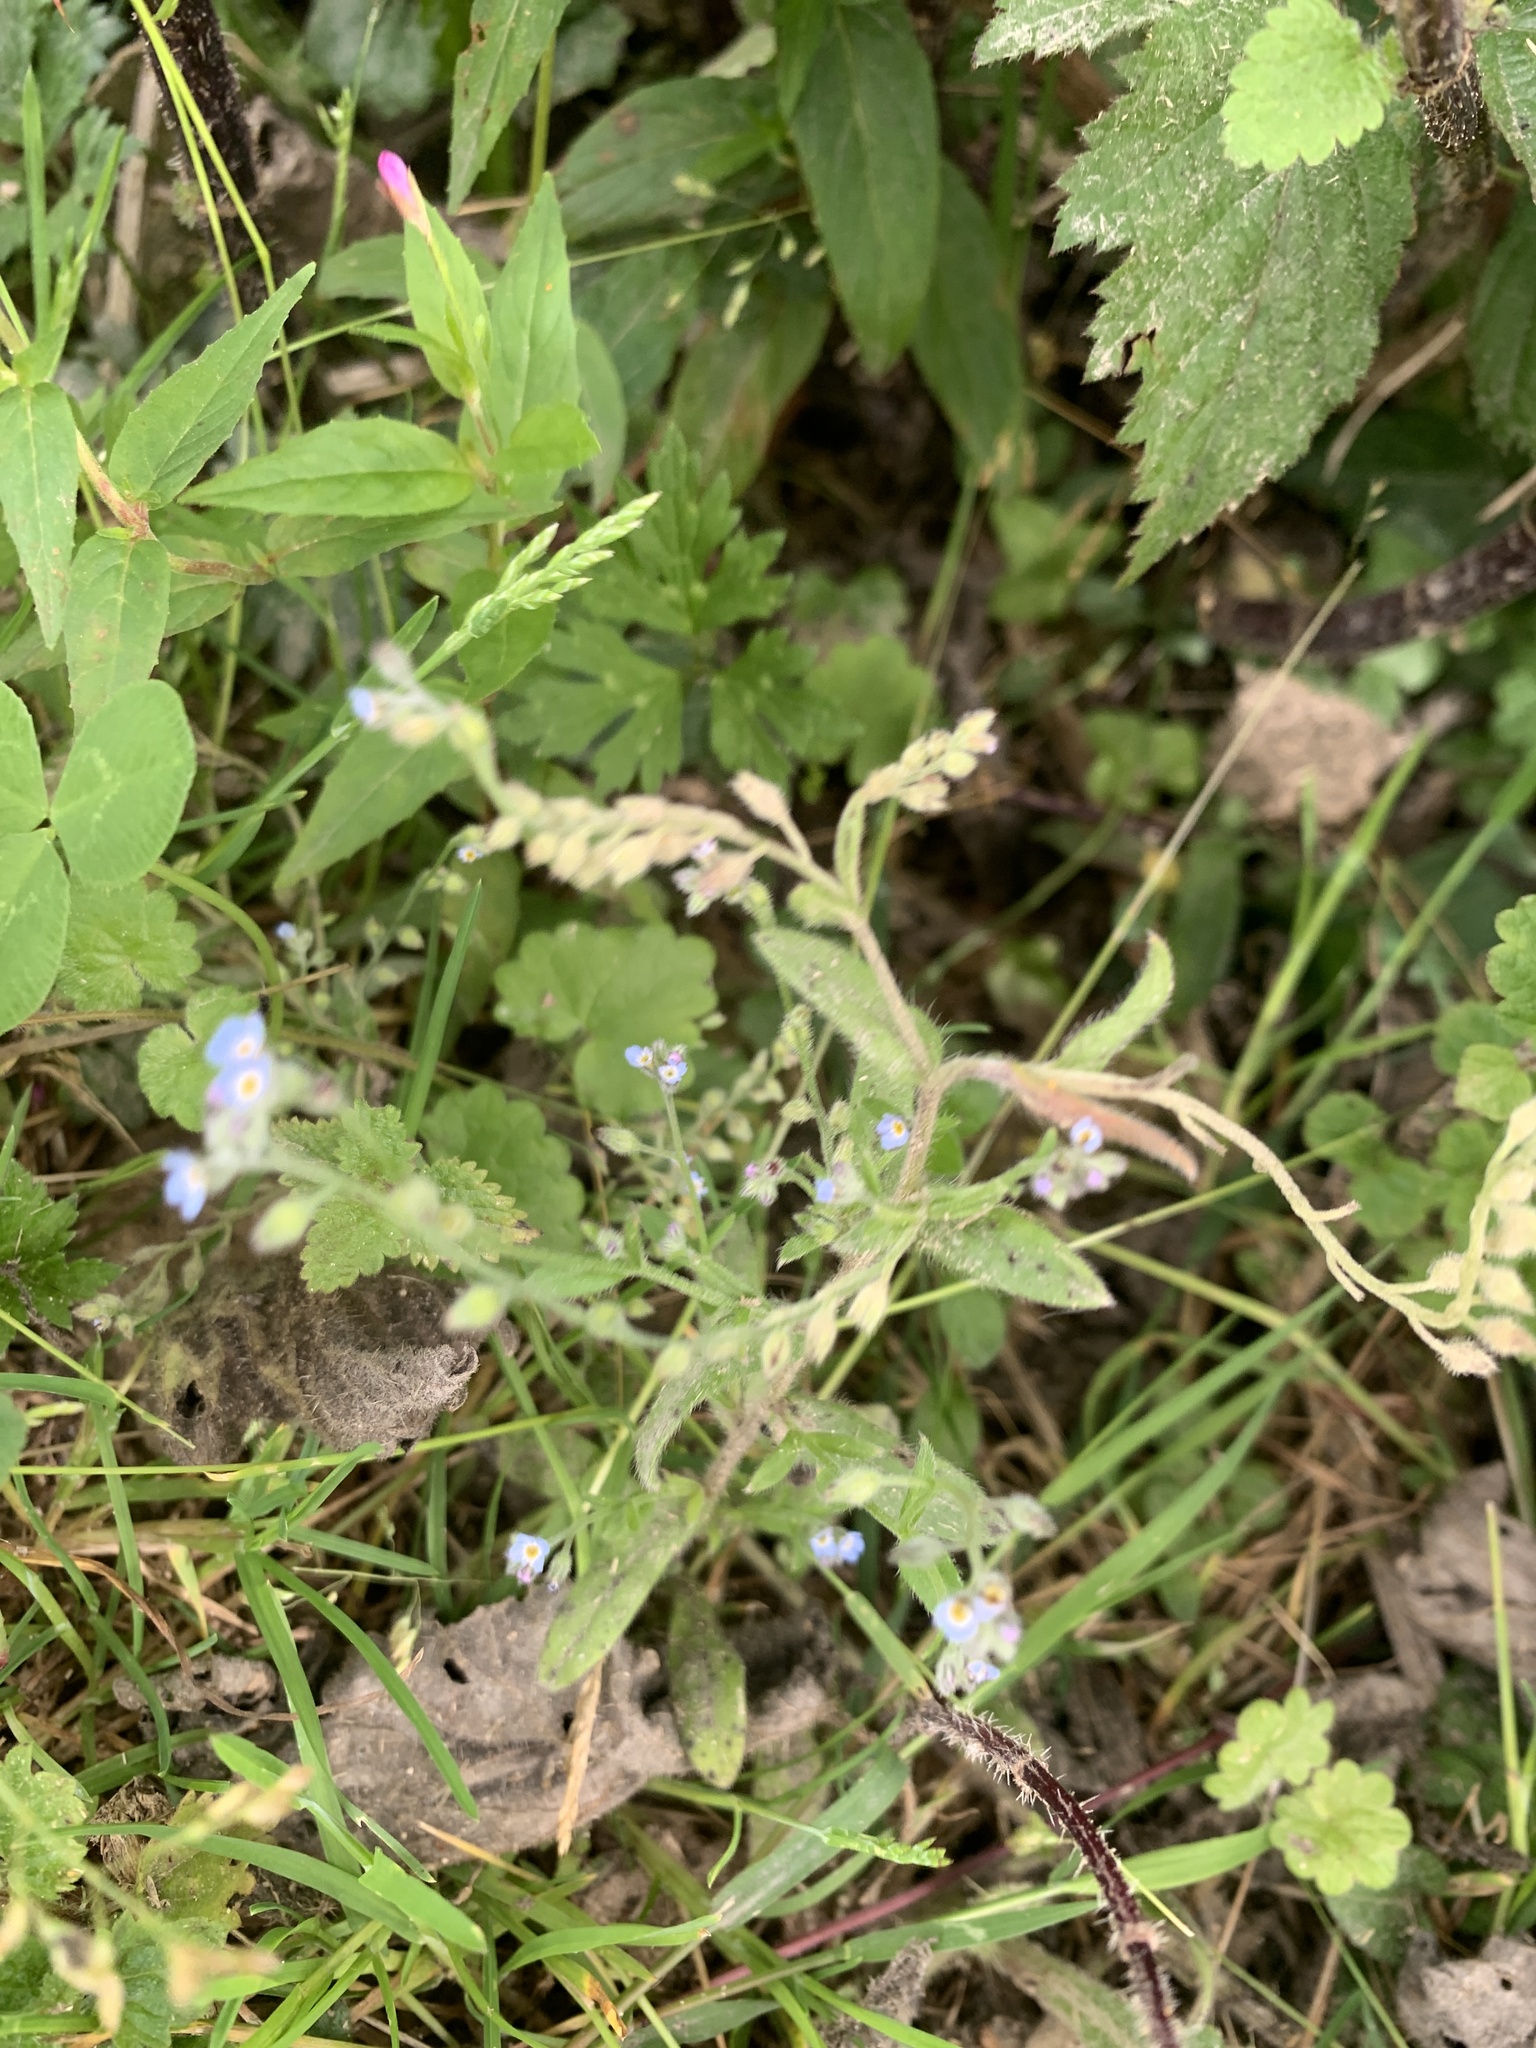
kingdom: Plantae
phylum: Tracheophyta
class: Magnoliopsida
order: Boraginales
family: Boraginaceae
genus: Myosotis
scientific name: Myosotis arvensis
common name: Field forget-me-not
